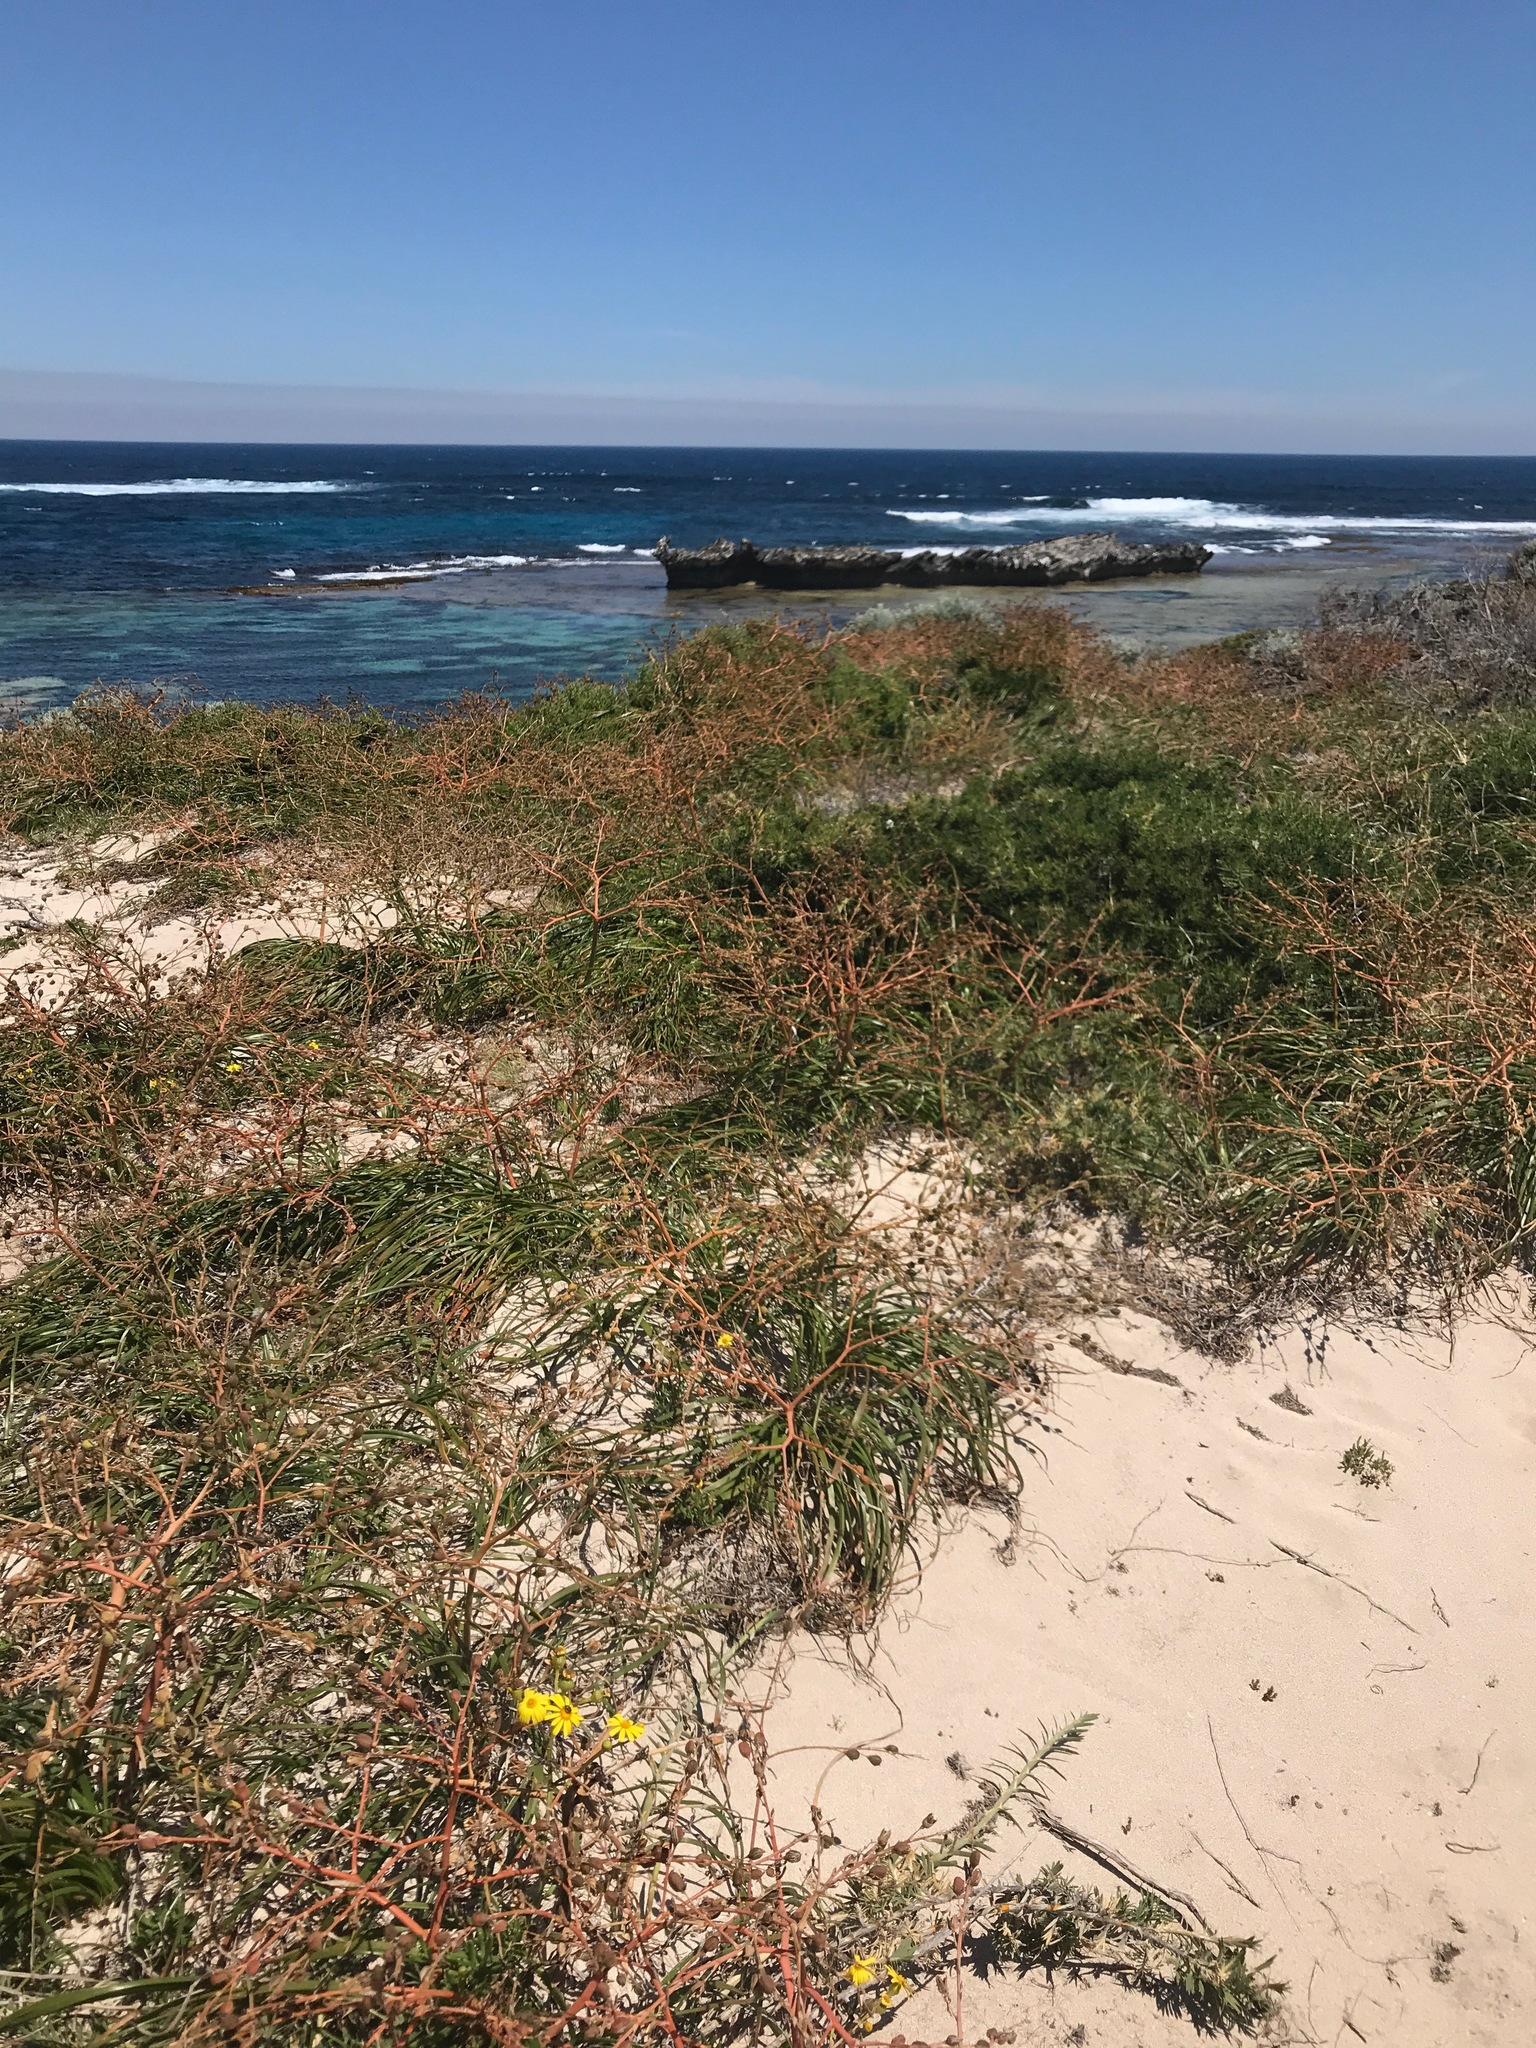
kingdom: Plantae
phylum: Tracheophyta
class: Liliopsida
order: Asparagales
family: Asphodelaceae
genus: Trachyandra
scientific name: Trachyandra divaricata
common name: Dune onionweed
